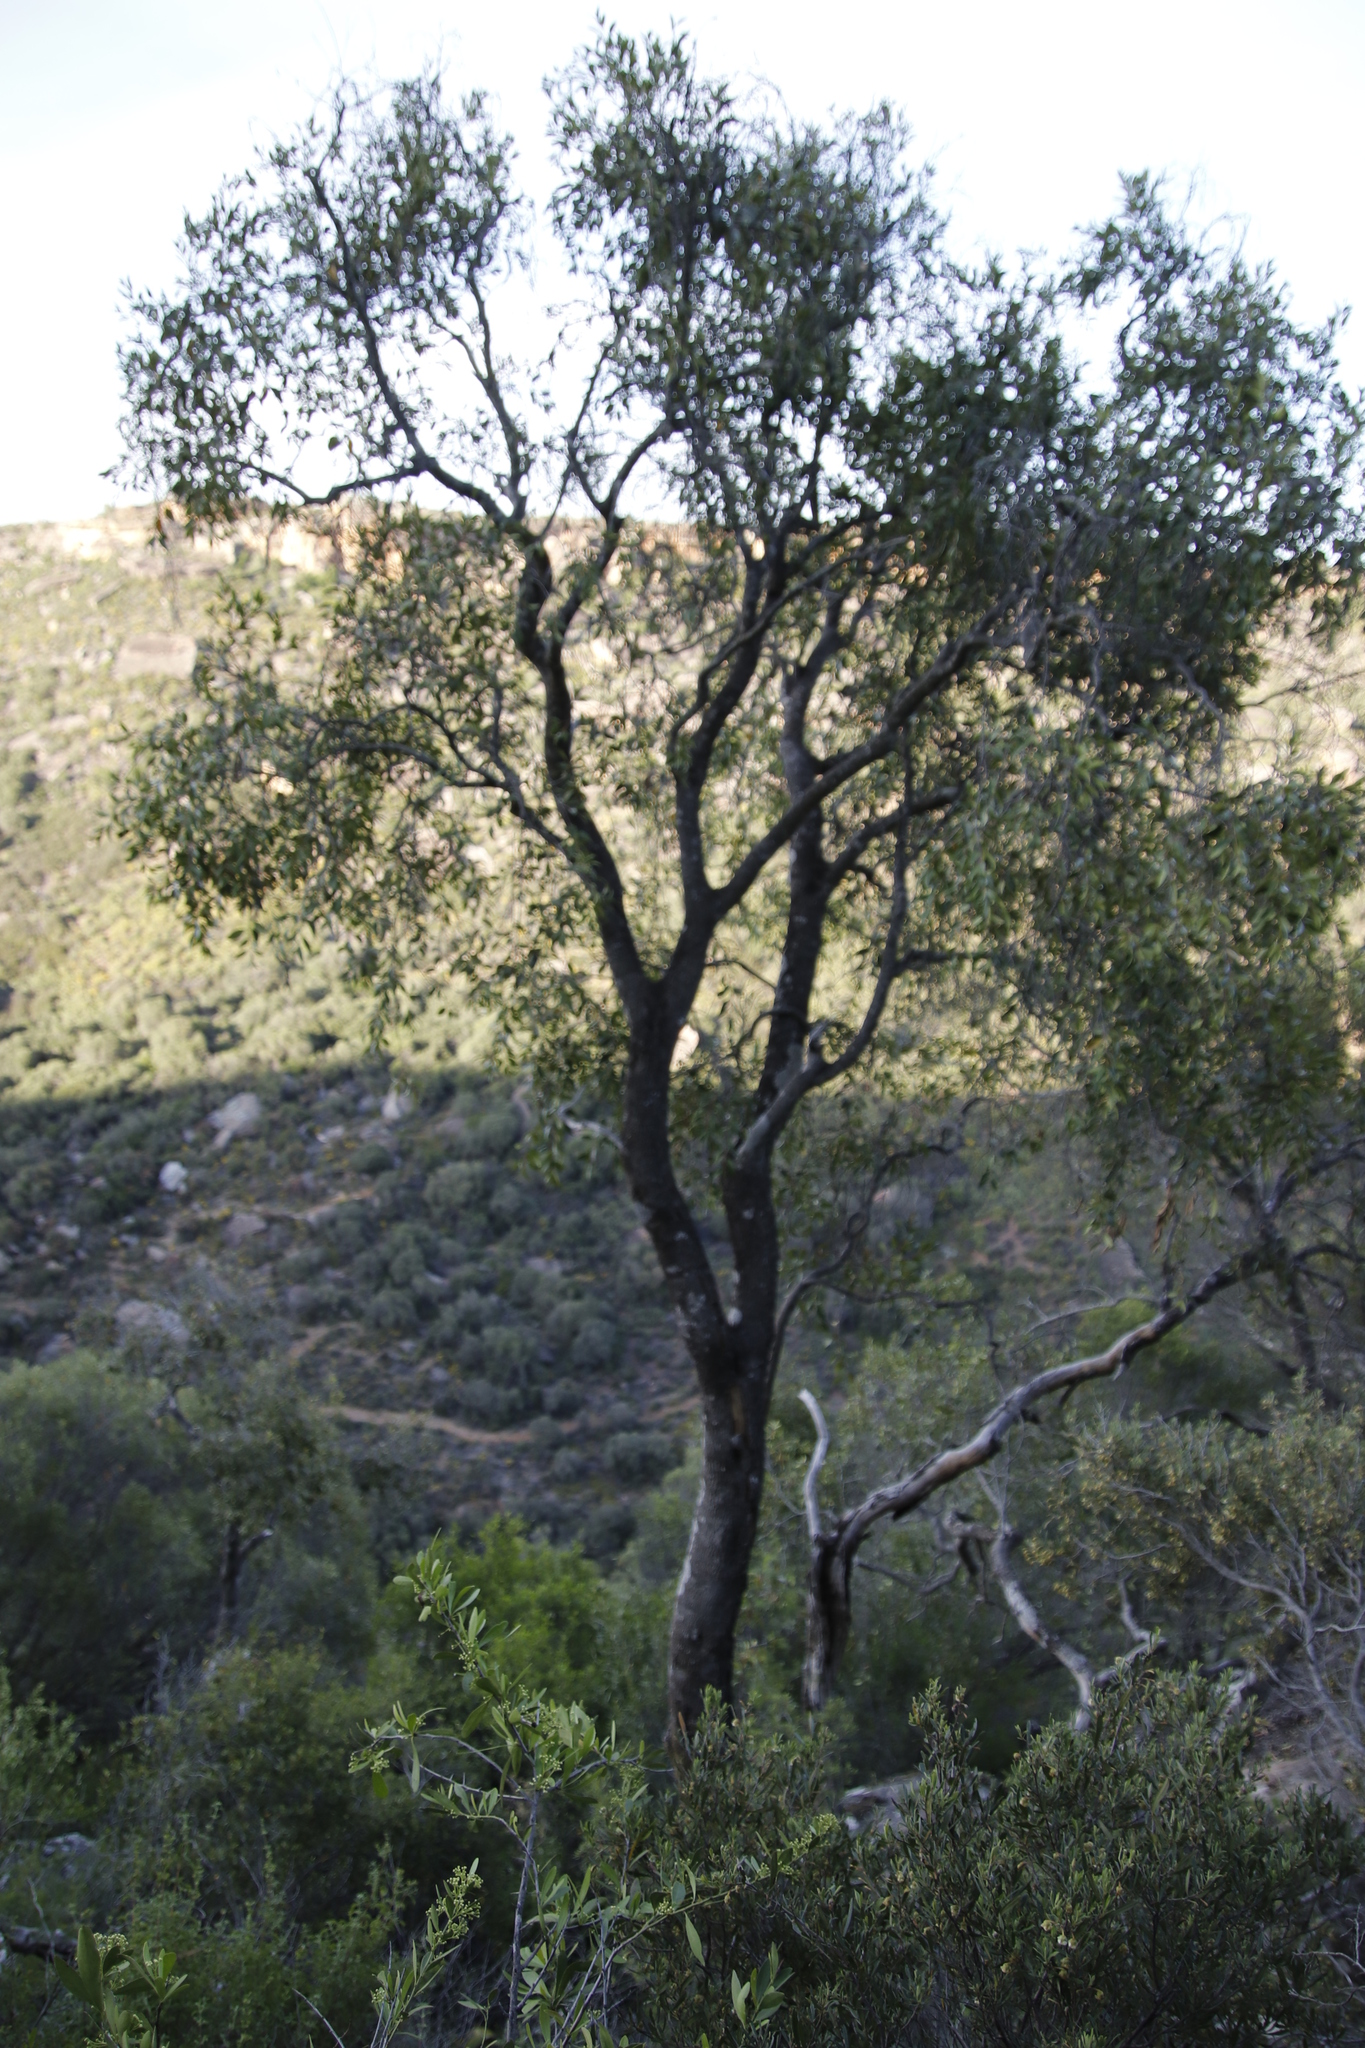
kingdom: Plantae
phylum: Tracheophyta
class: Magnoliopsida
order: Lamiales
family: Oleaceae
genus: Olea
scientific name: Olea europaea
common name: Olive
